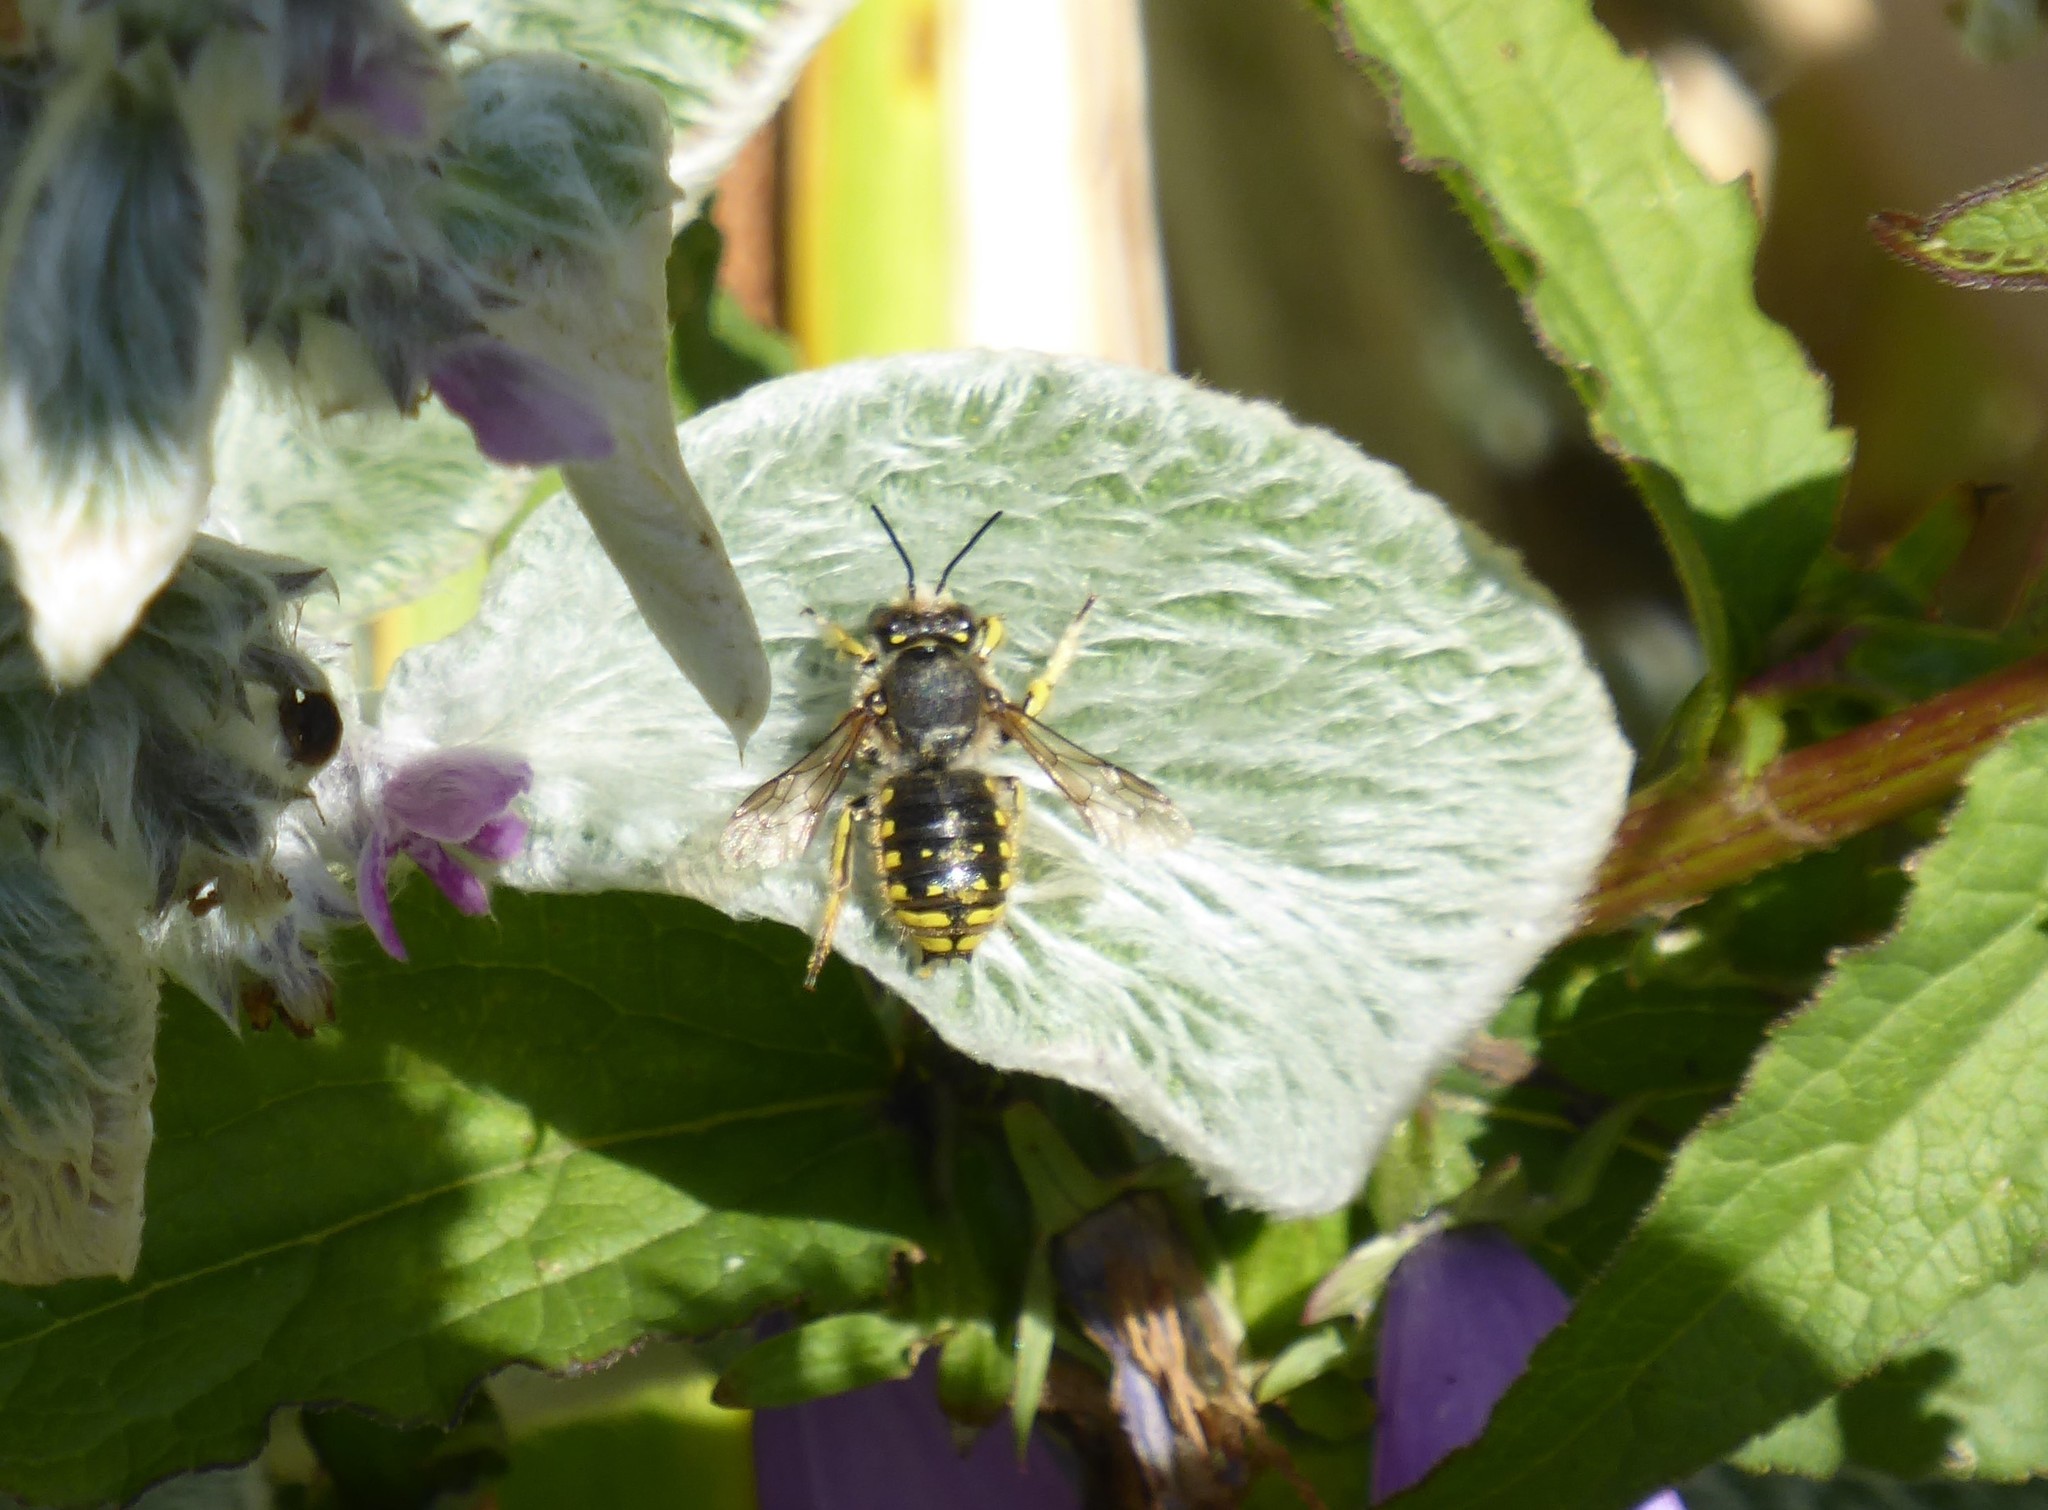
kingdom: Animalia
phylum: Arthropoda
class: Insecta
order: Hymenoptera
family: Megachilidae
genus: Anthidium
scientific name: Anthidium manicatum
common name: Wool carder bee
